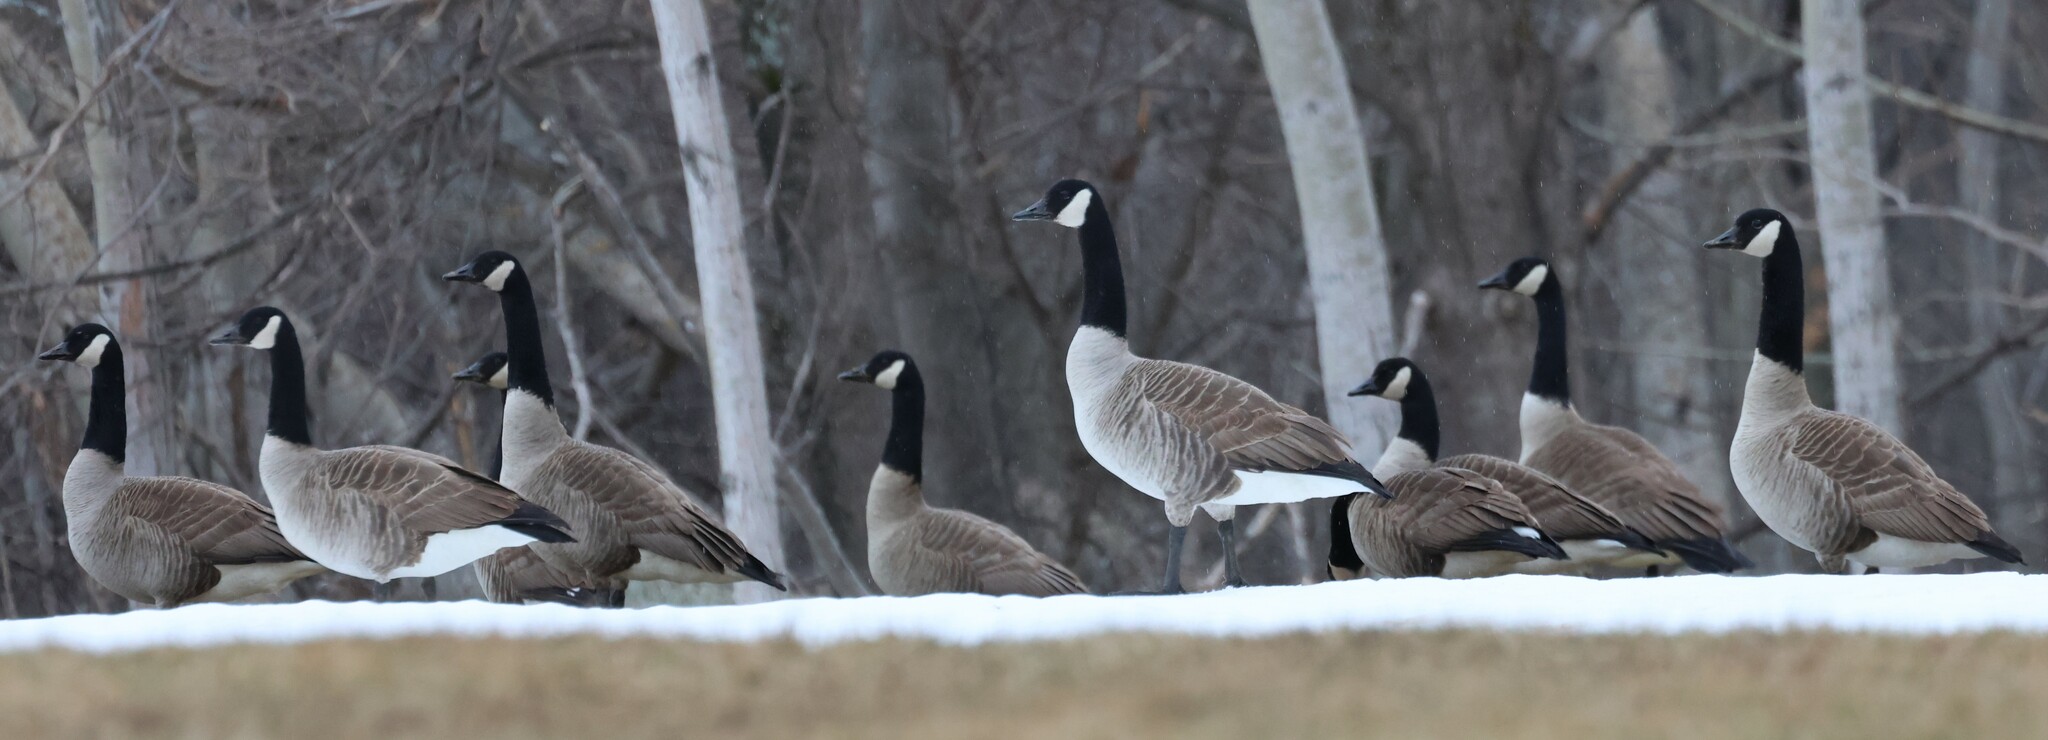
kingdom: Animalia
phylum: Chordata
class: Aves
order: Anseriformes
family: Anatidae
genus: Branta
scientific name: Branta canadensis
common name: Canada goose
